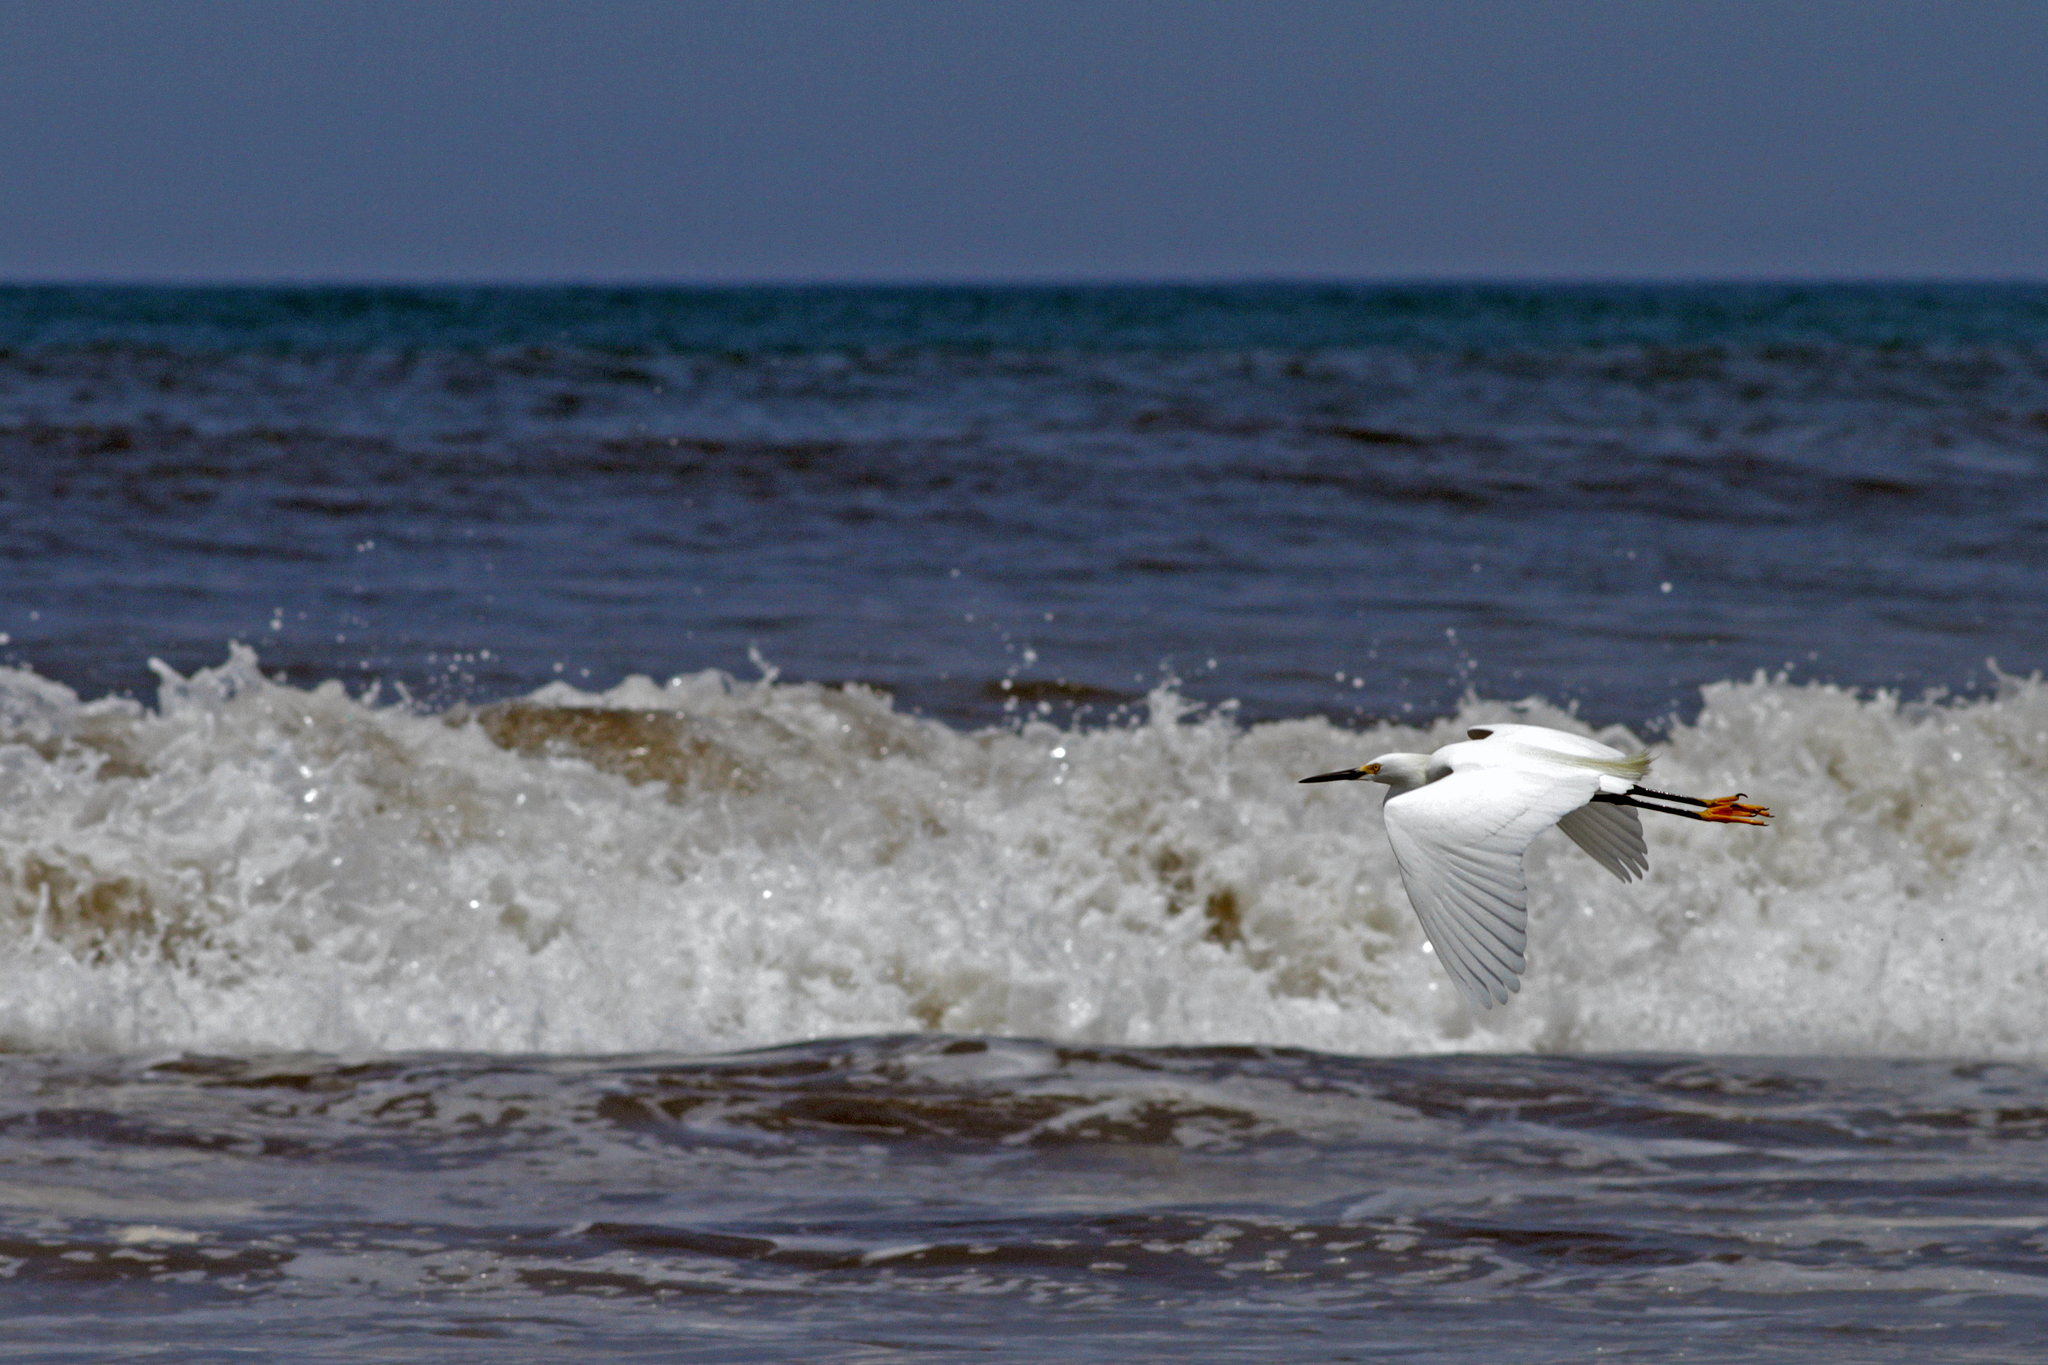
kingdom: Animalia
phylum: Chordata
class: Aves
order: Pelecaniformes
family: Ardeidae
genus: Egretta
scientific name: Egretta thula
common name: Snowy egret
